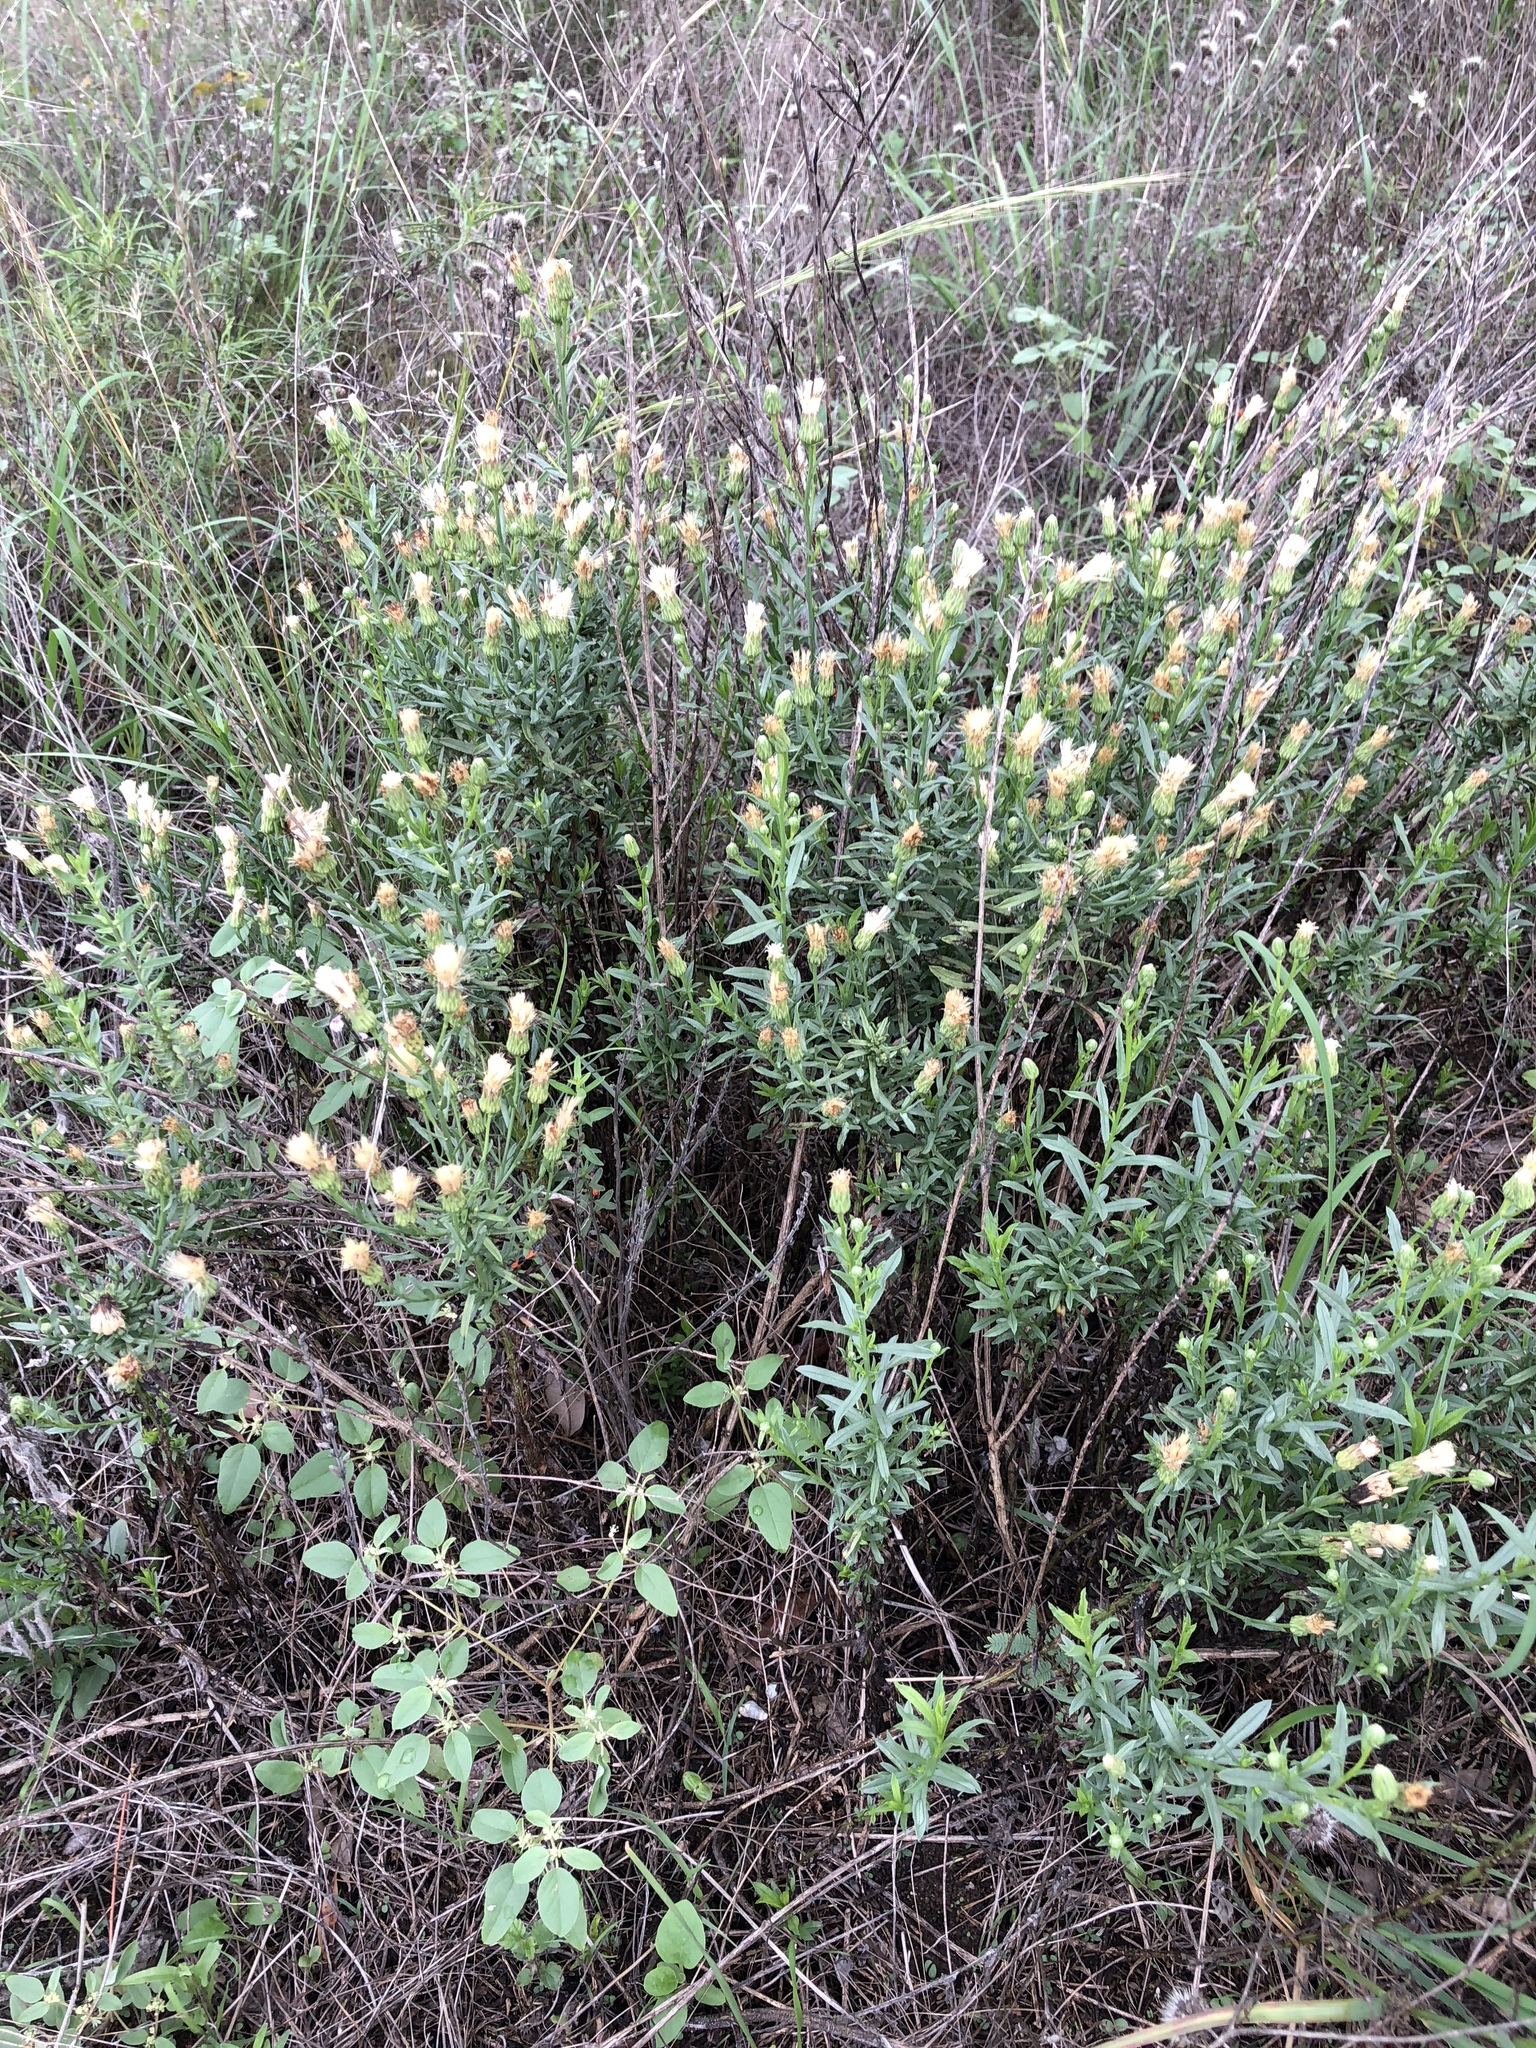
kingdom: Plantae
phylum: Tracheophyta
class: Magnoliopsida
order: Asterales
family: Asteraceae
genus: Baccharis
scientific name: Baccharis texana
